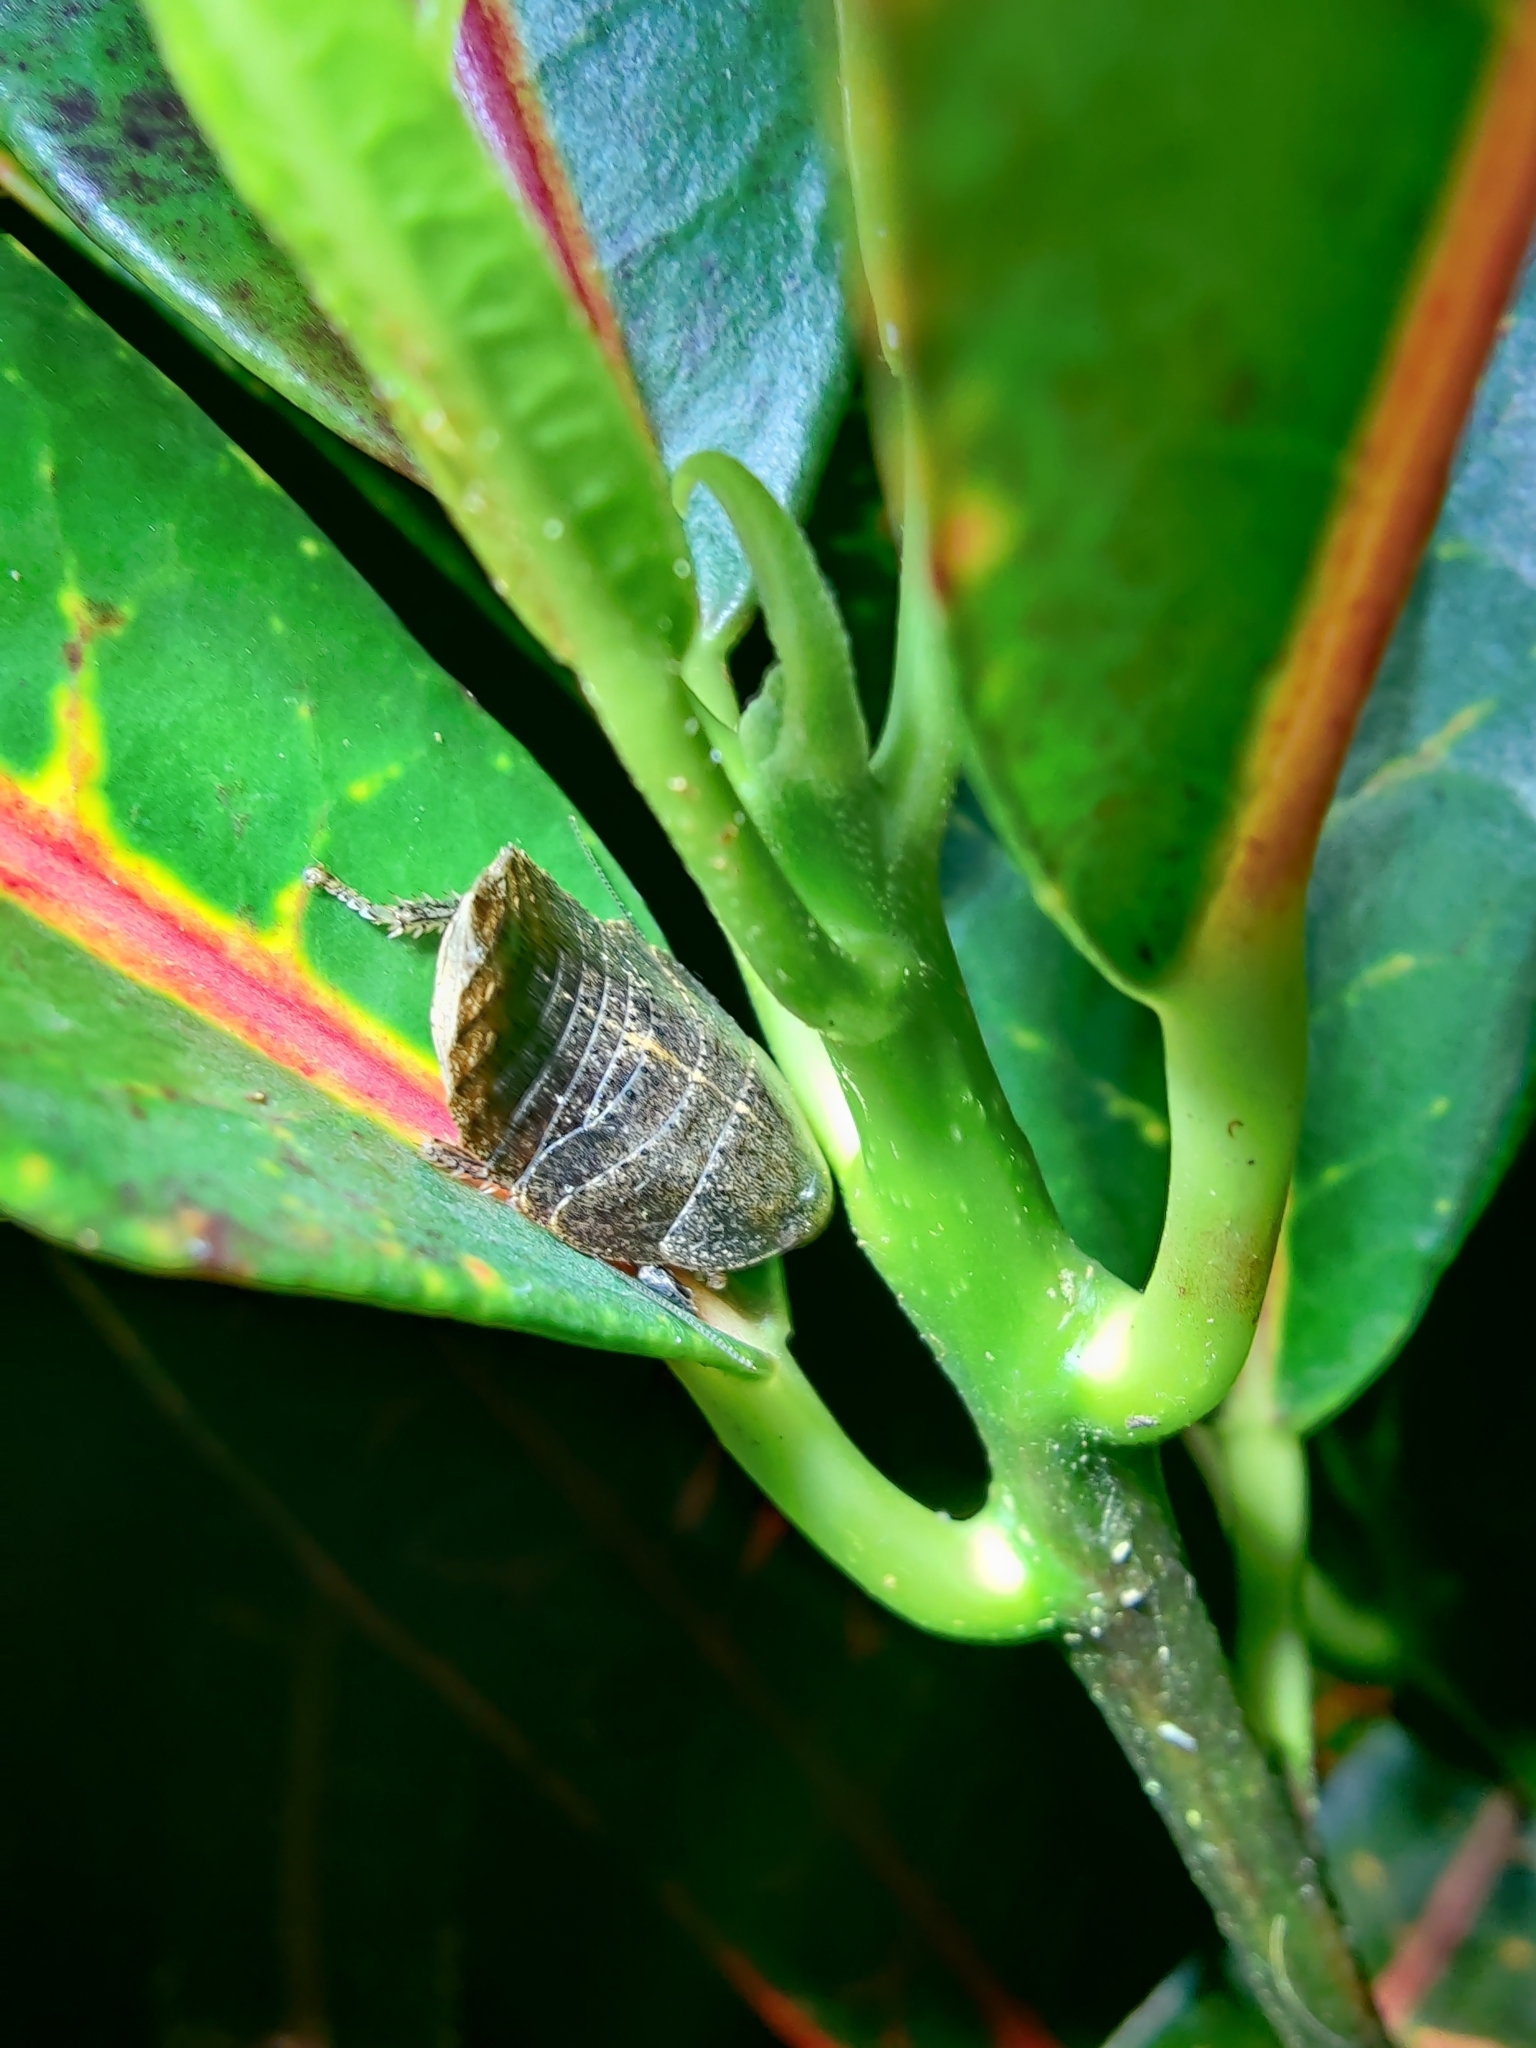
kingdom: Animalia
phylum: Arthropoda
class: Insecta
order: Blattodea
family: Blaberidae
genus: Thorax
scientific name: Thorax porcellana
